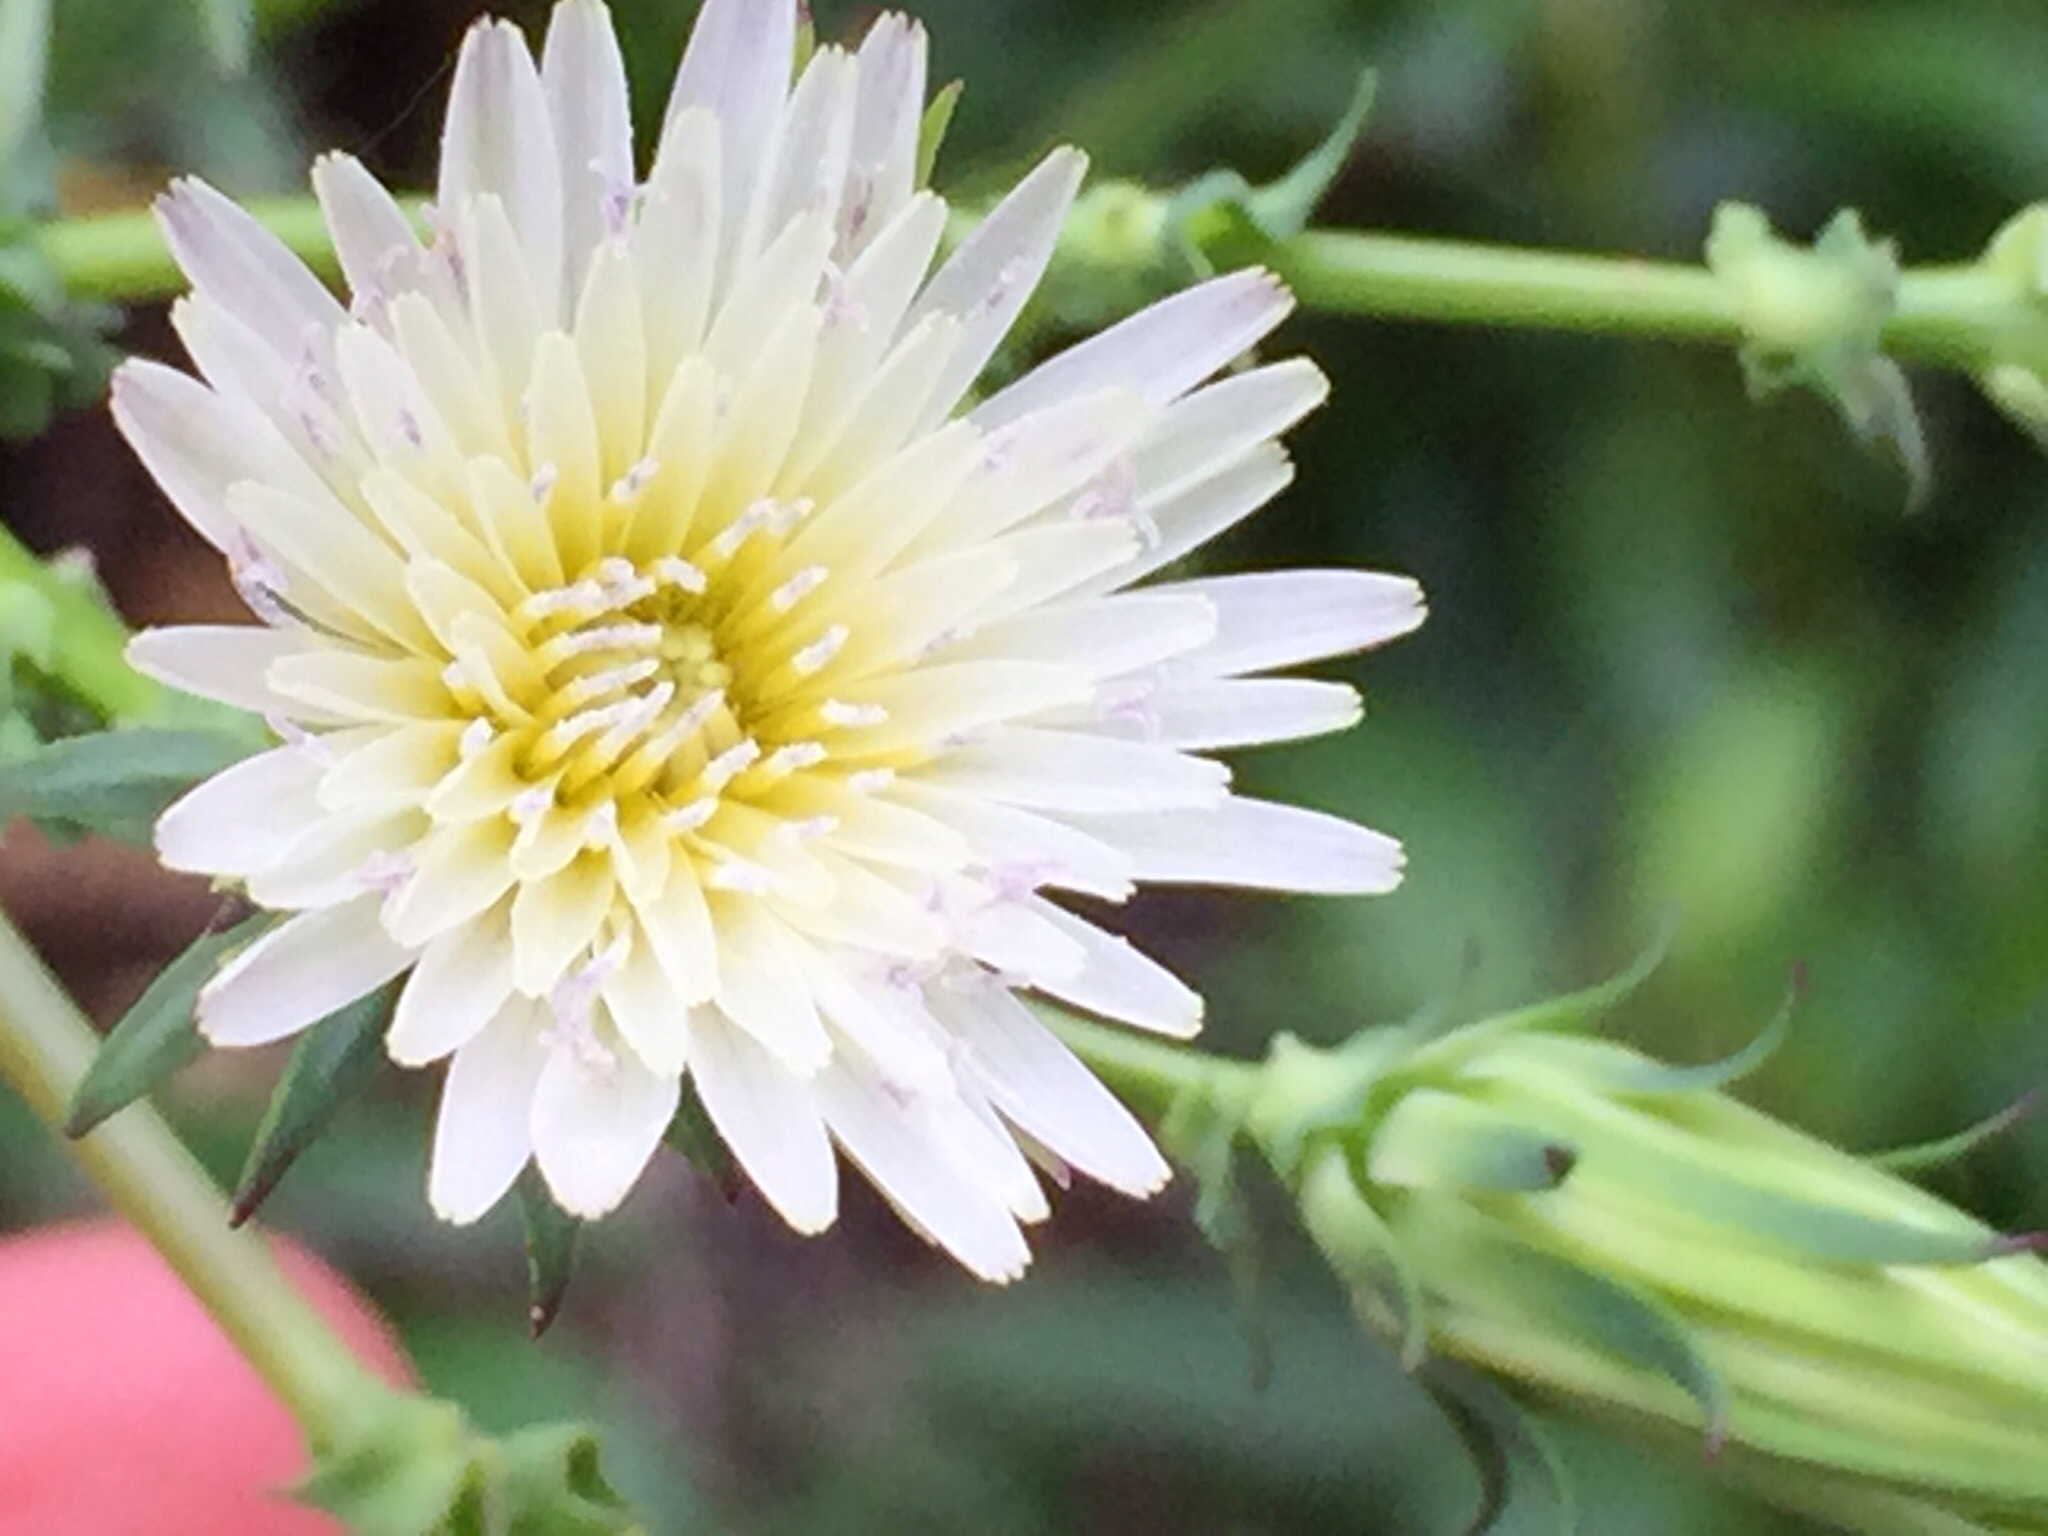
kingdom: Plantae
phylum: Tracheophyta
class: Magnoliopsida
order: Asterales
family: Asteraceae
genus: Rafinesquia
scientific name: Rafinesquia californica
